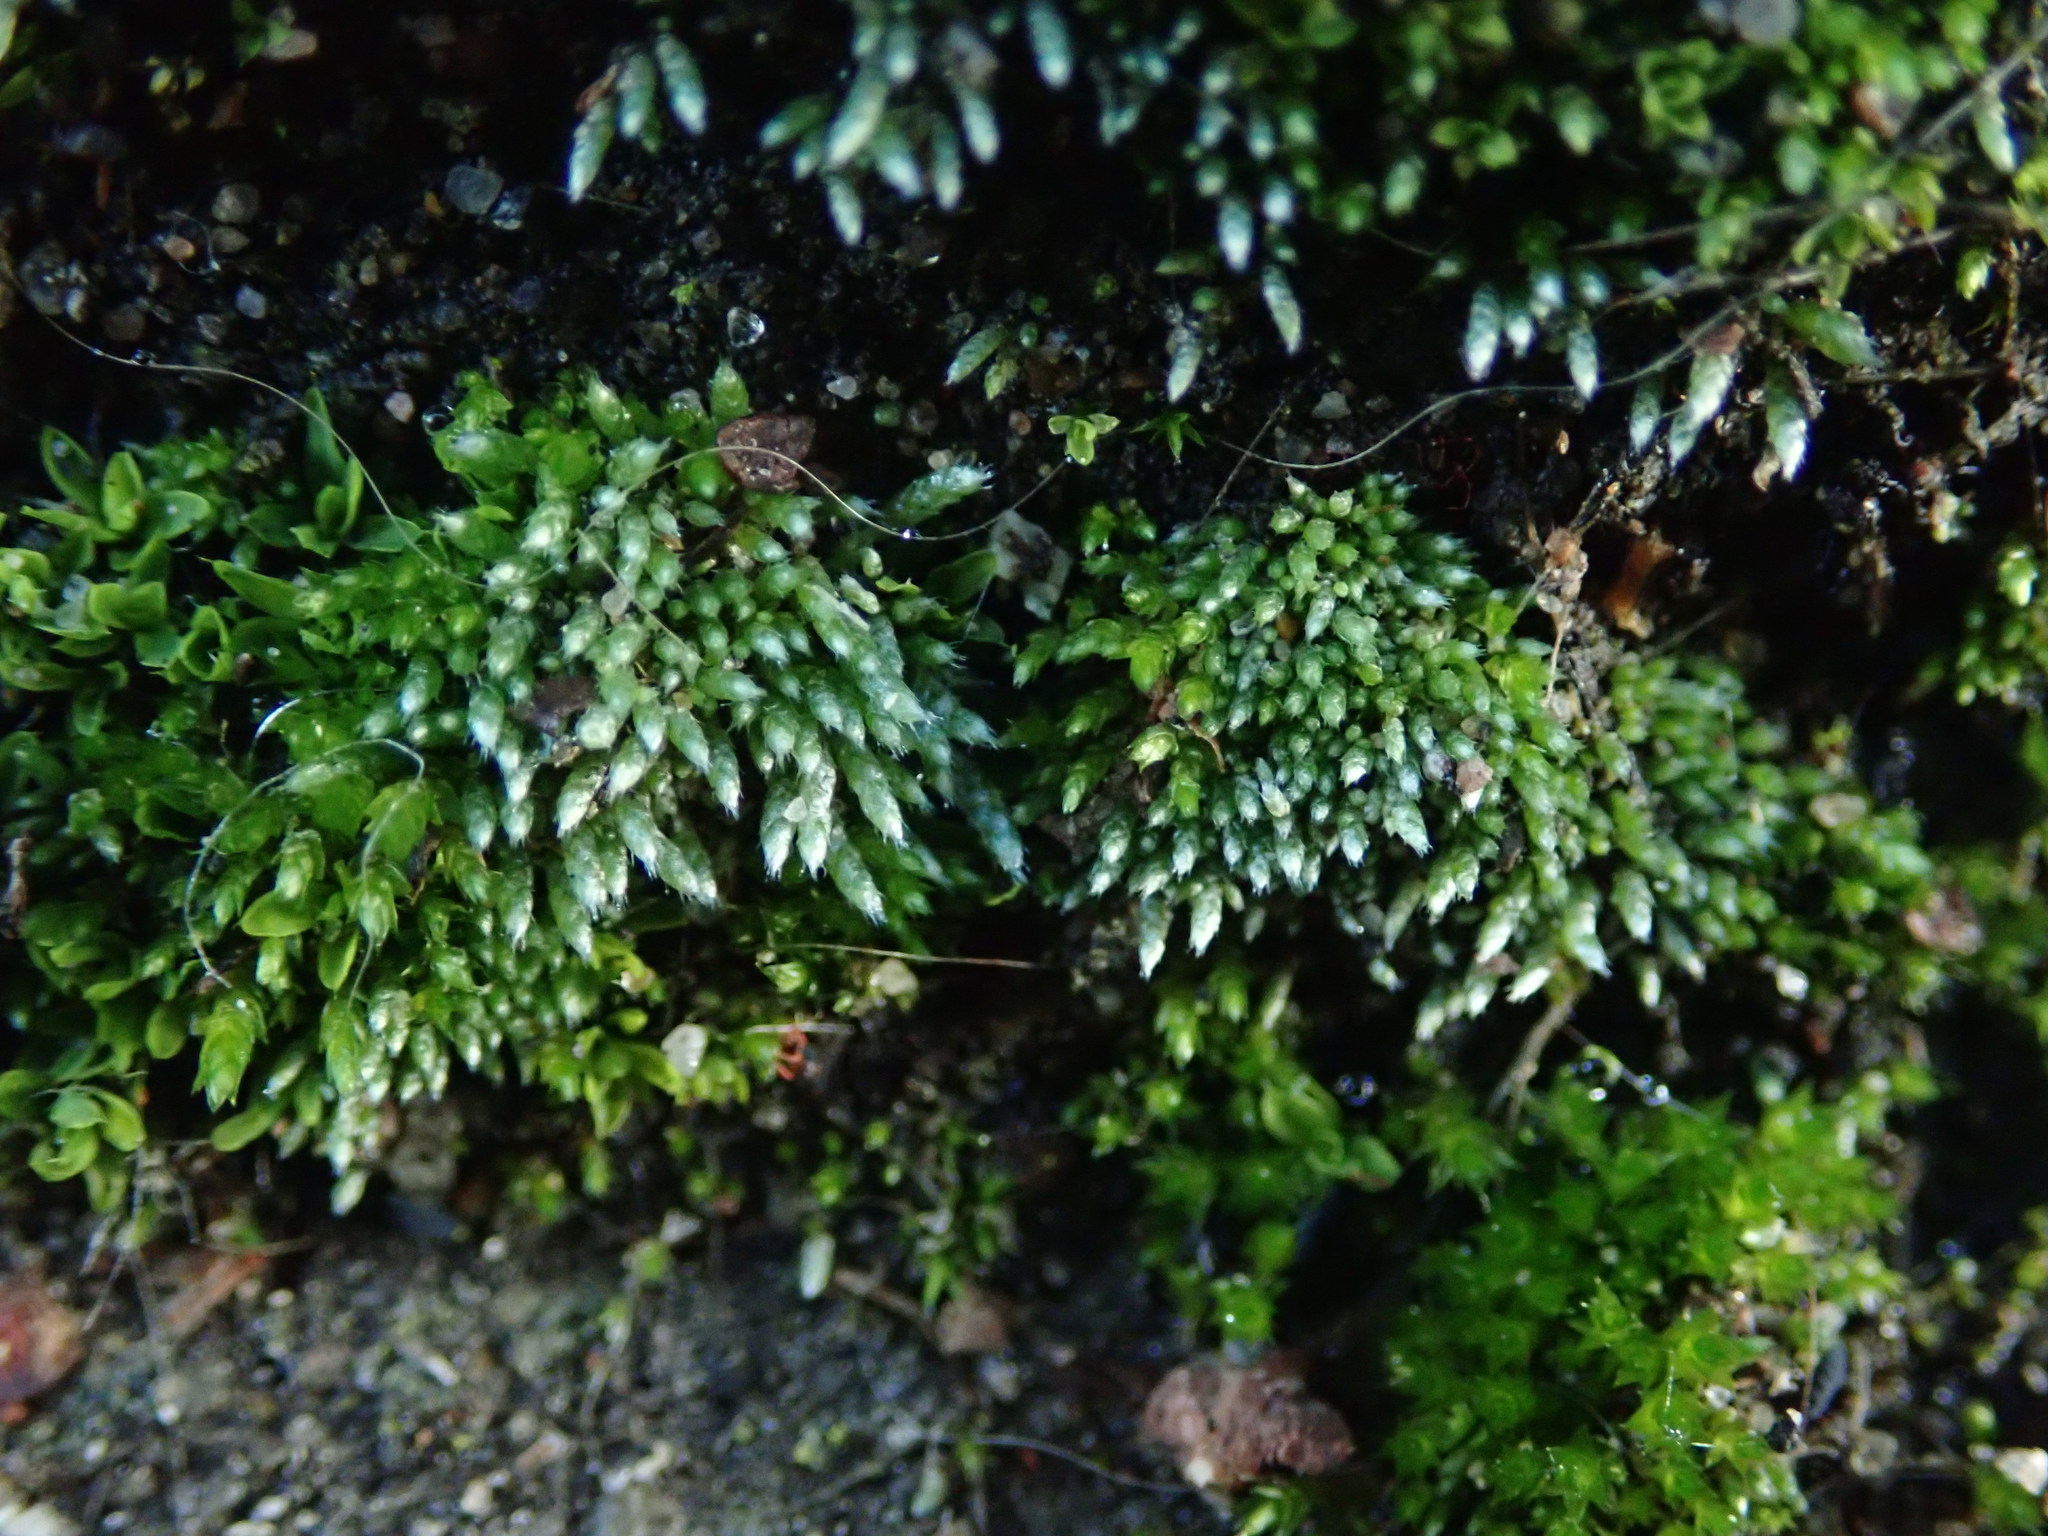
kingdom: Plantae
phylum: Bryophyta
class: Bryopsida
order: Bryales
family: Bryaceae
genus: Bryum
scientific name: Bryum argenteum
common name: Silver-moss
